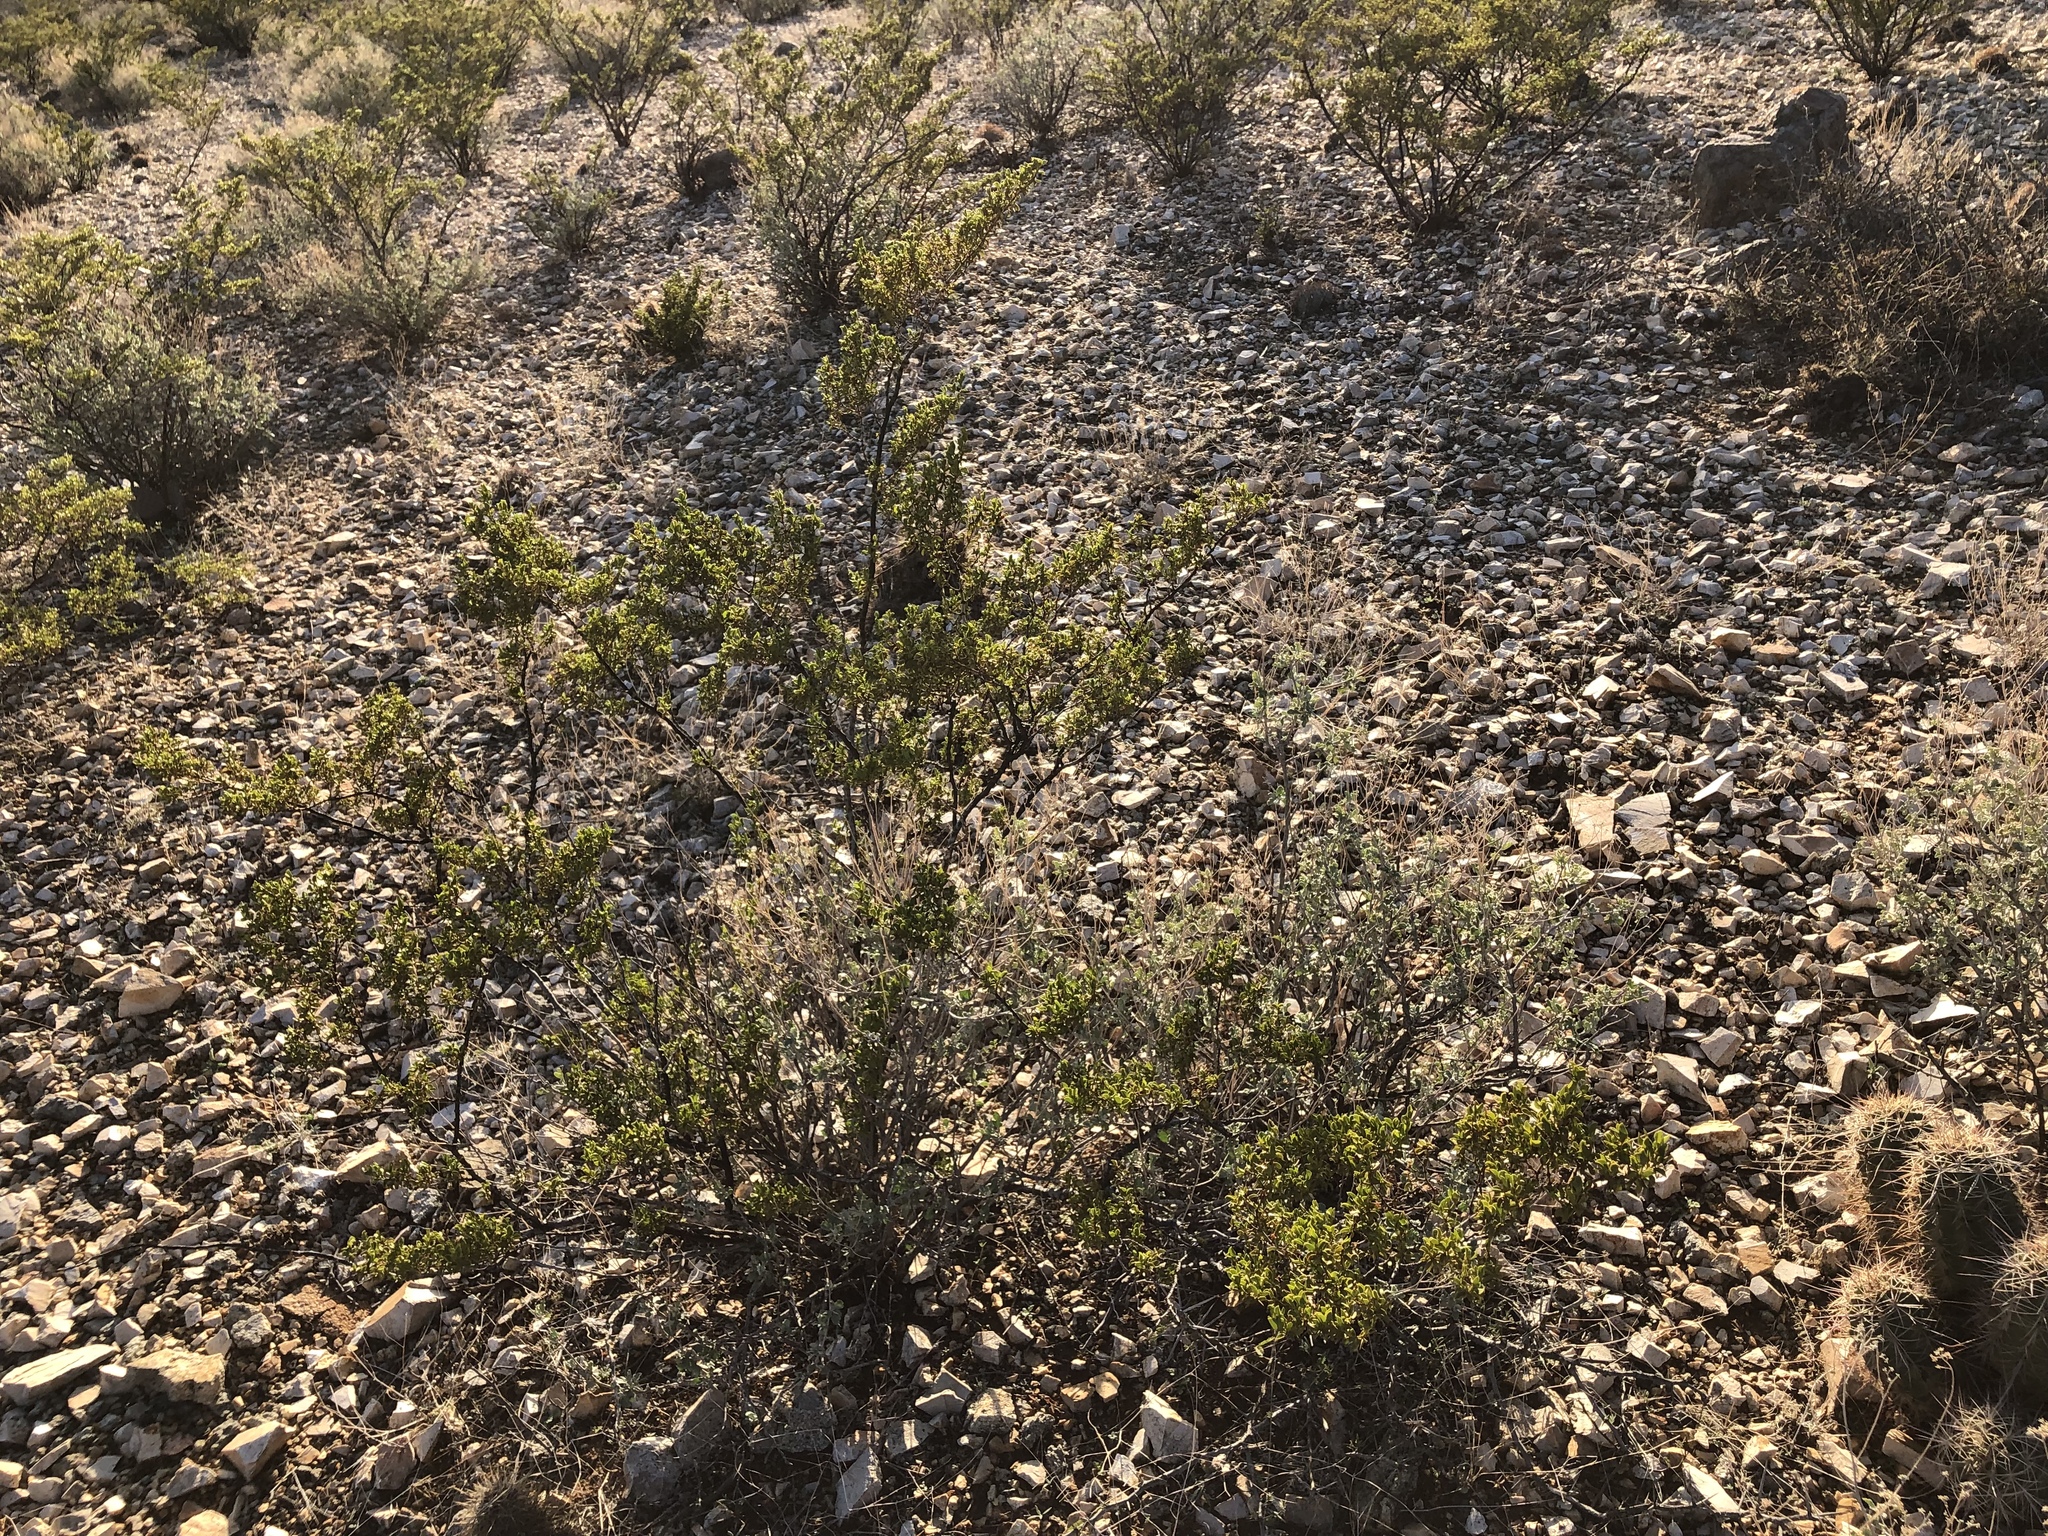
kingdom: Plantae
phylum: Tracheophyta
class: Magnoliopsida
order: Zygophyllales
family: Zygophyllaceae
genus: Larrea
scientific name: Larrea tridentata
